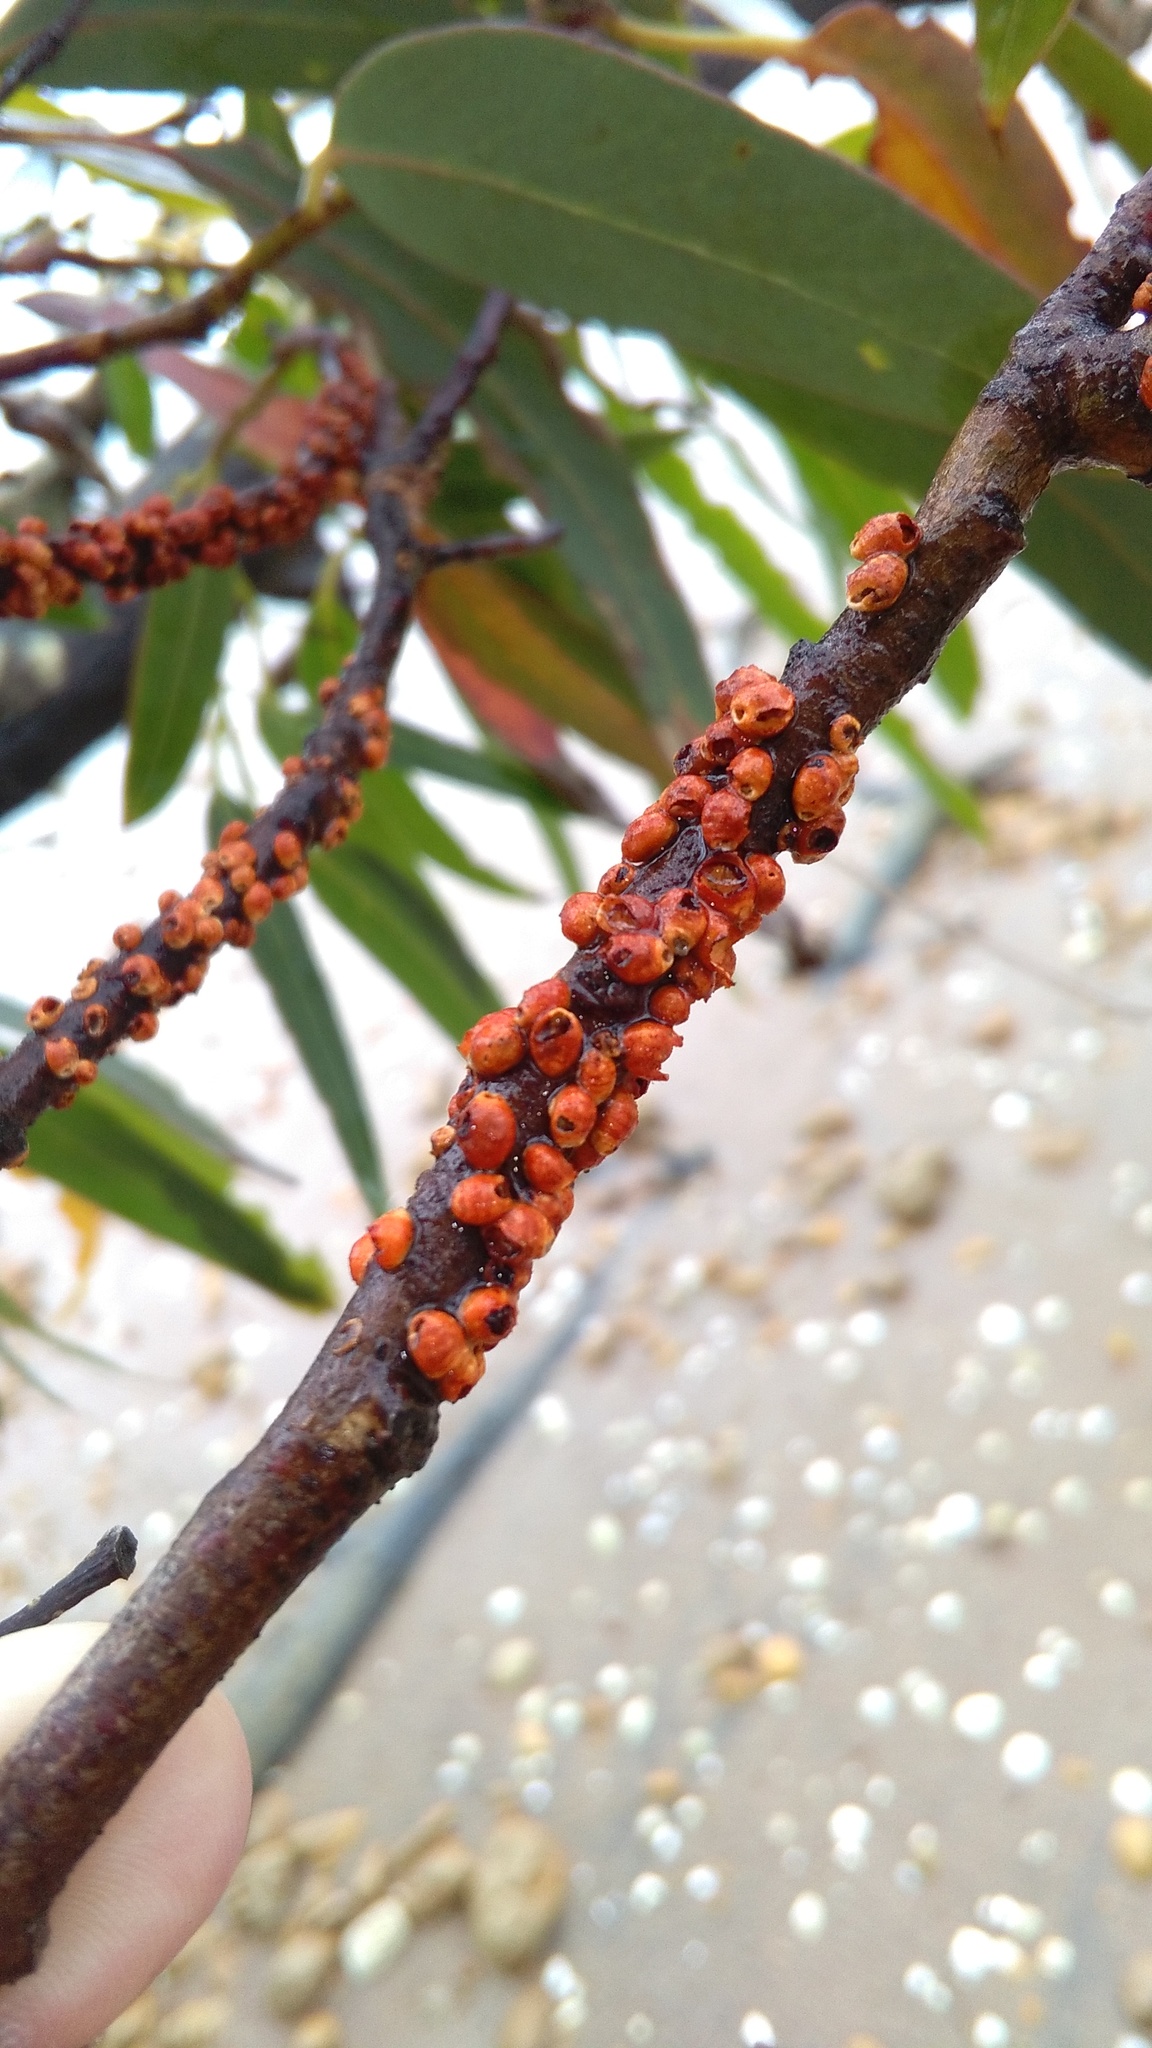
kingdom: Animalia
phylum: Arthropoda
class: Insecta
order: Hemiptera
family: Eriococcidae
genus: Eriococcus
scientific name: Eriococcus coriaceus
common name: Blue gum scale
